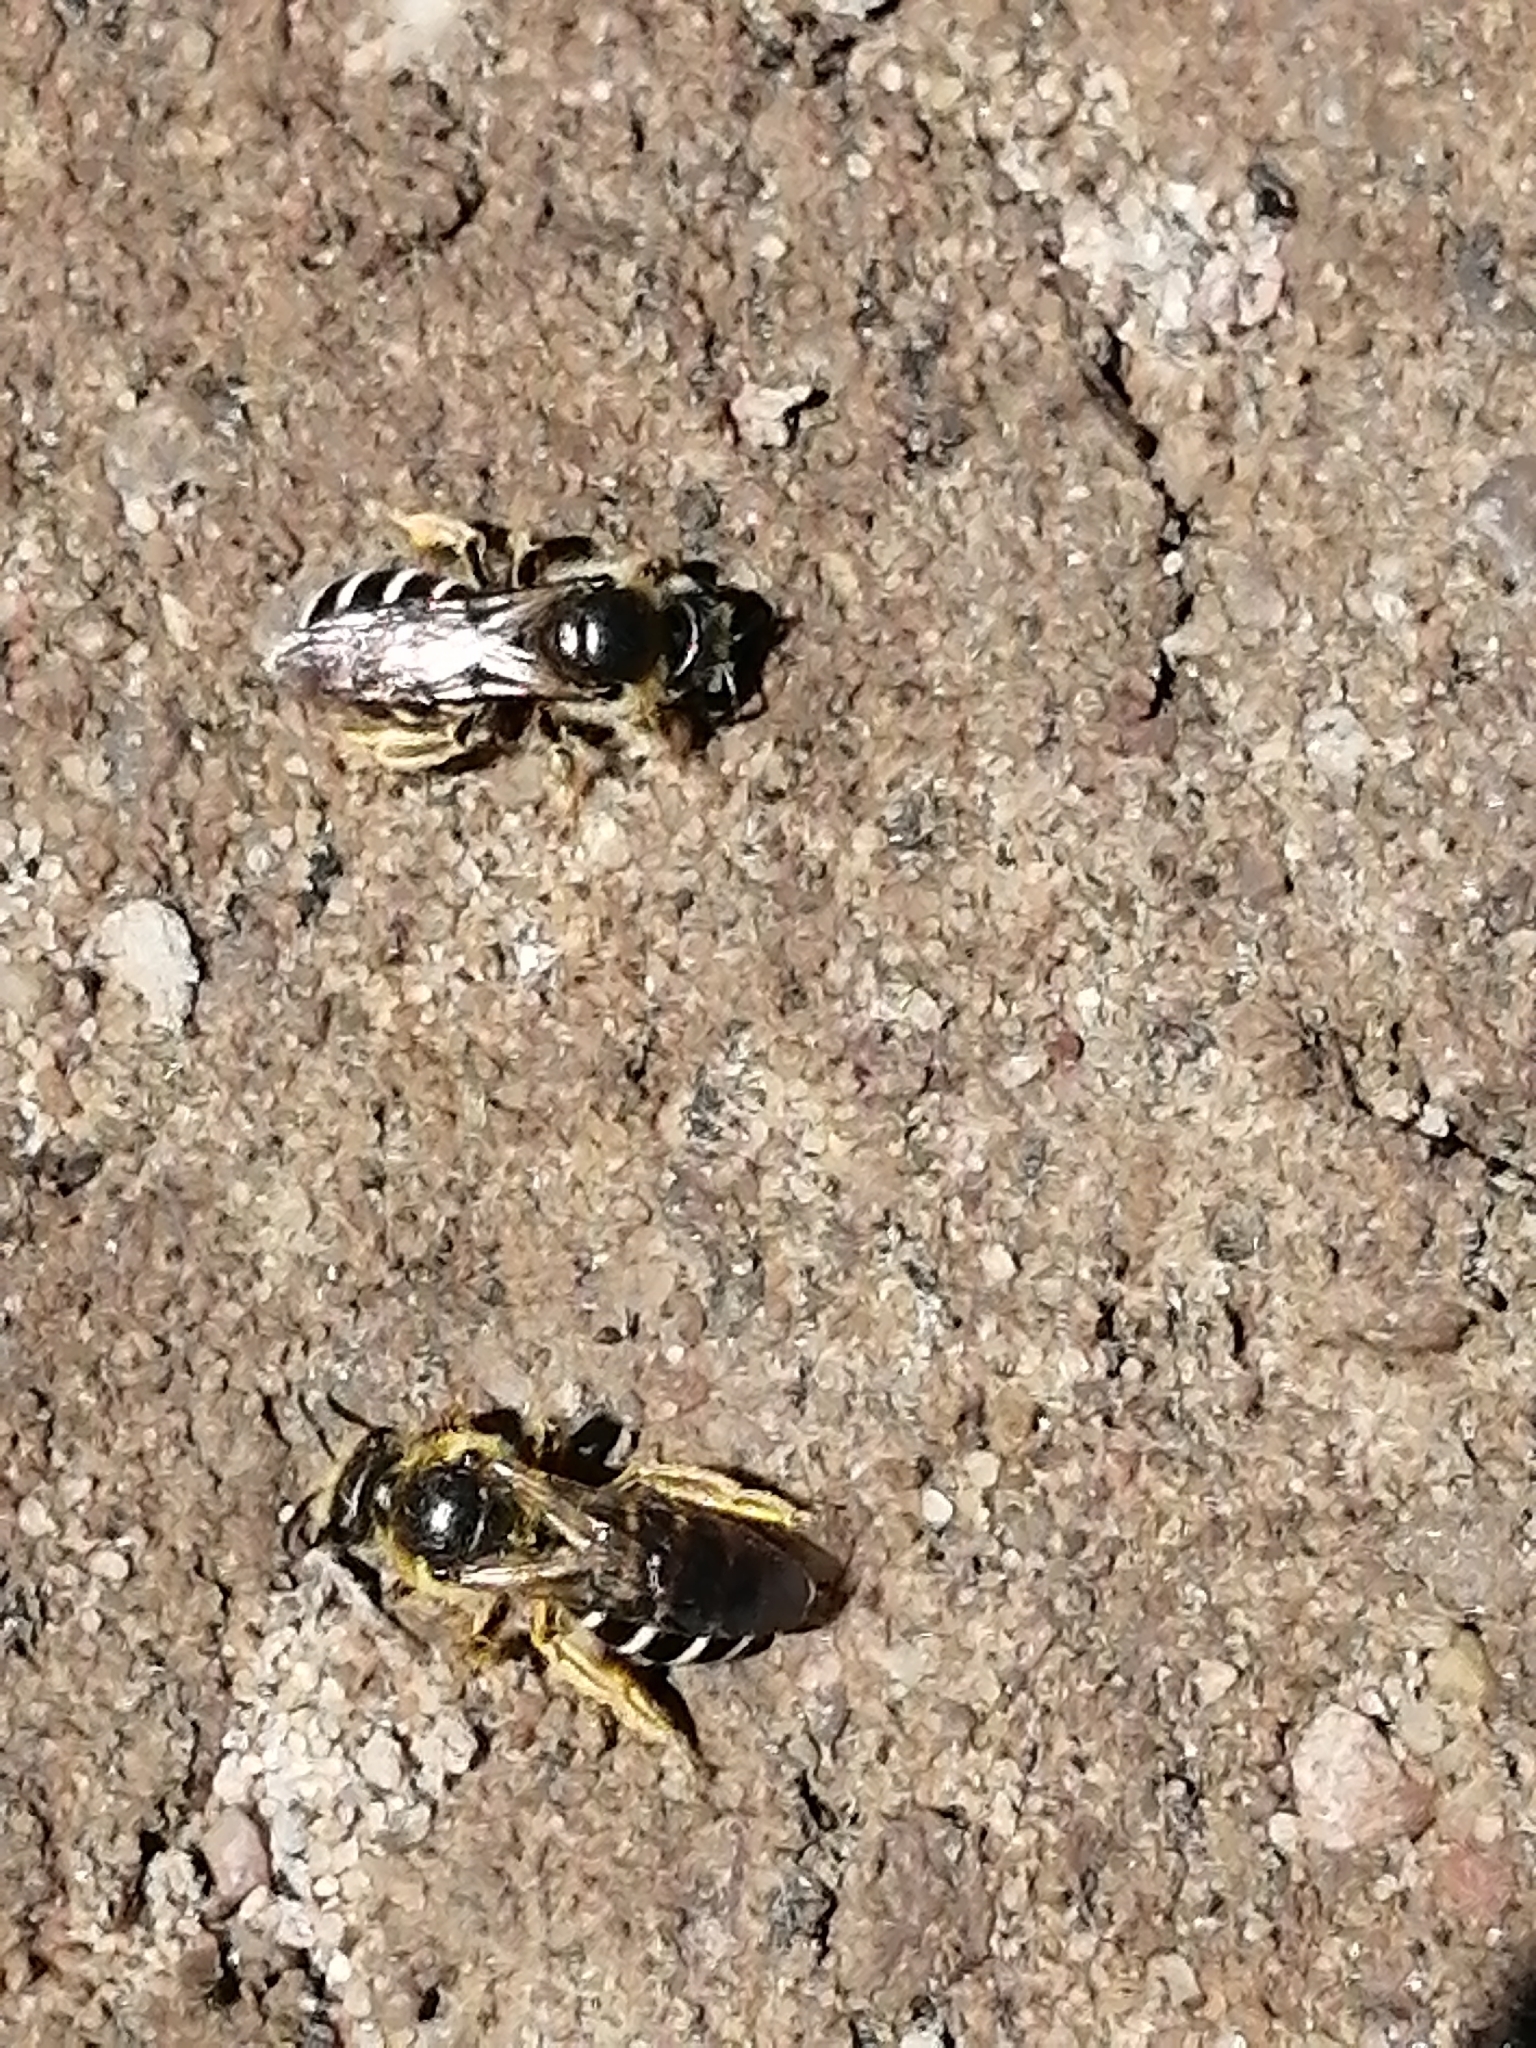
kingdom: Animalia
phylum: Arthropoda
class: Insecta
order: Hymenoptera
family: Halictidae
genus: Halictus
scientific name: Halictus rubicundus
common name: Orange-legged furrow bee
